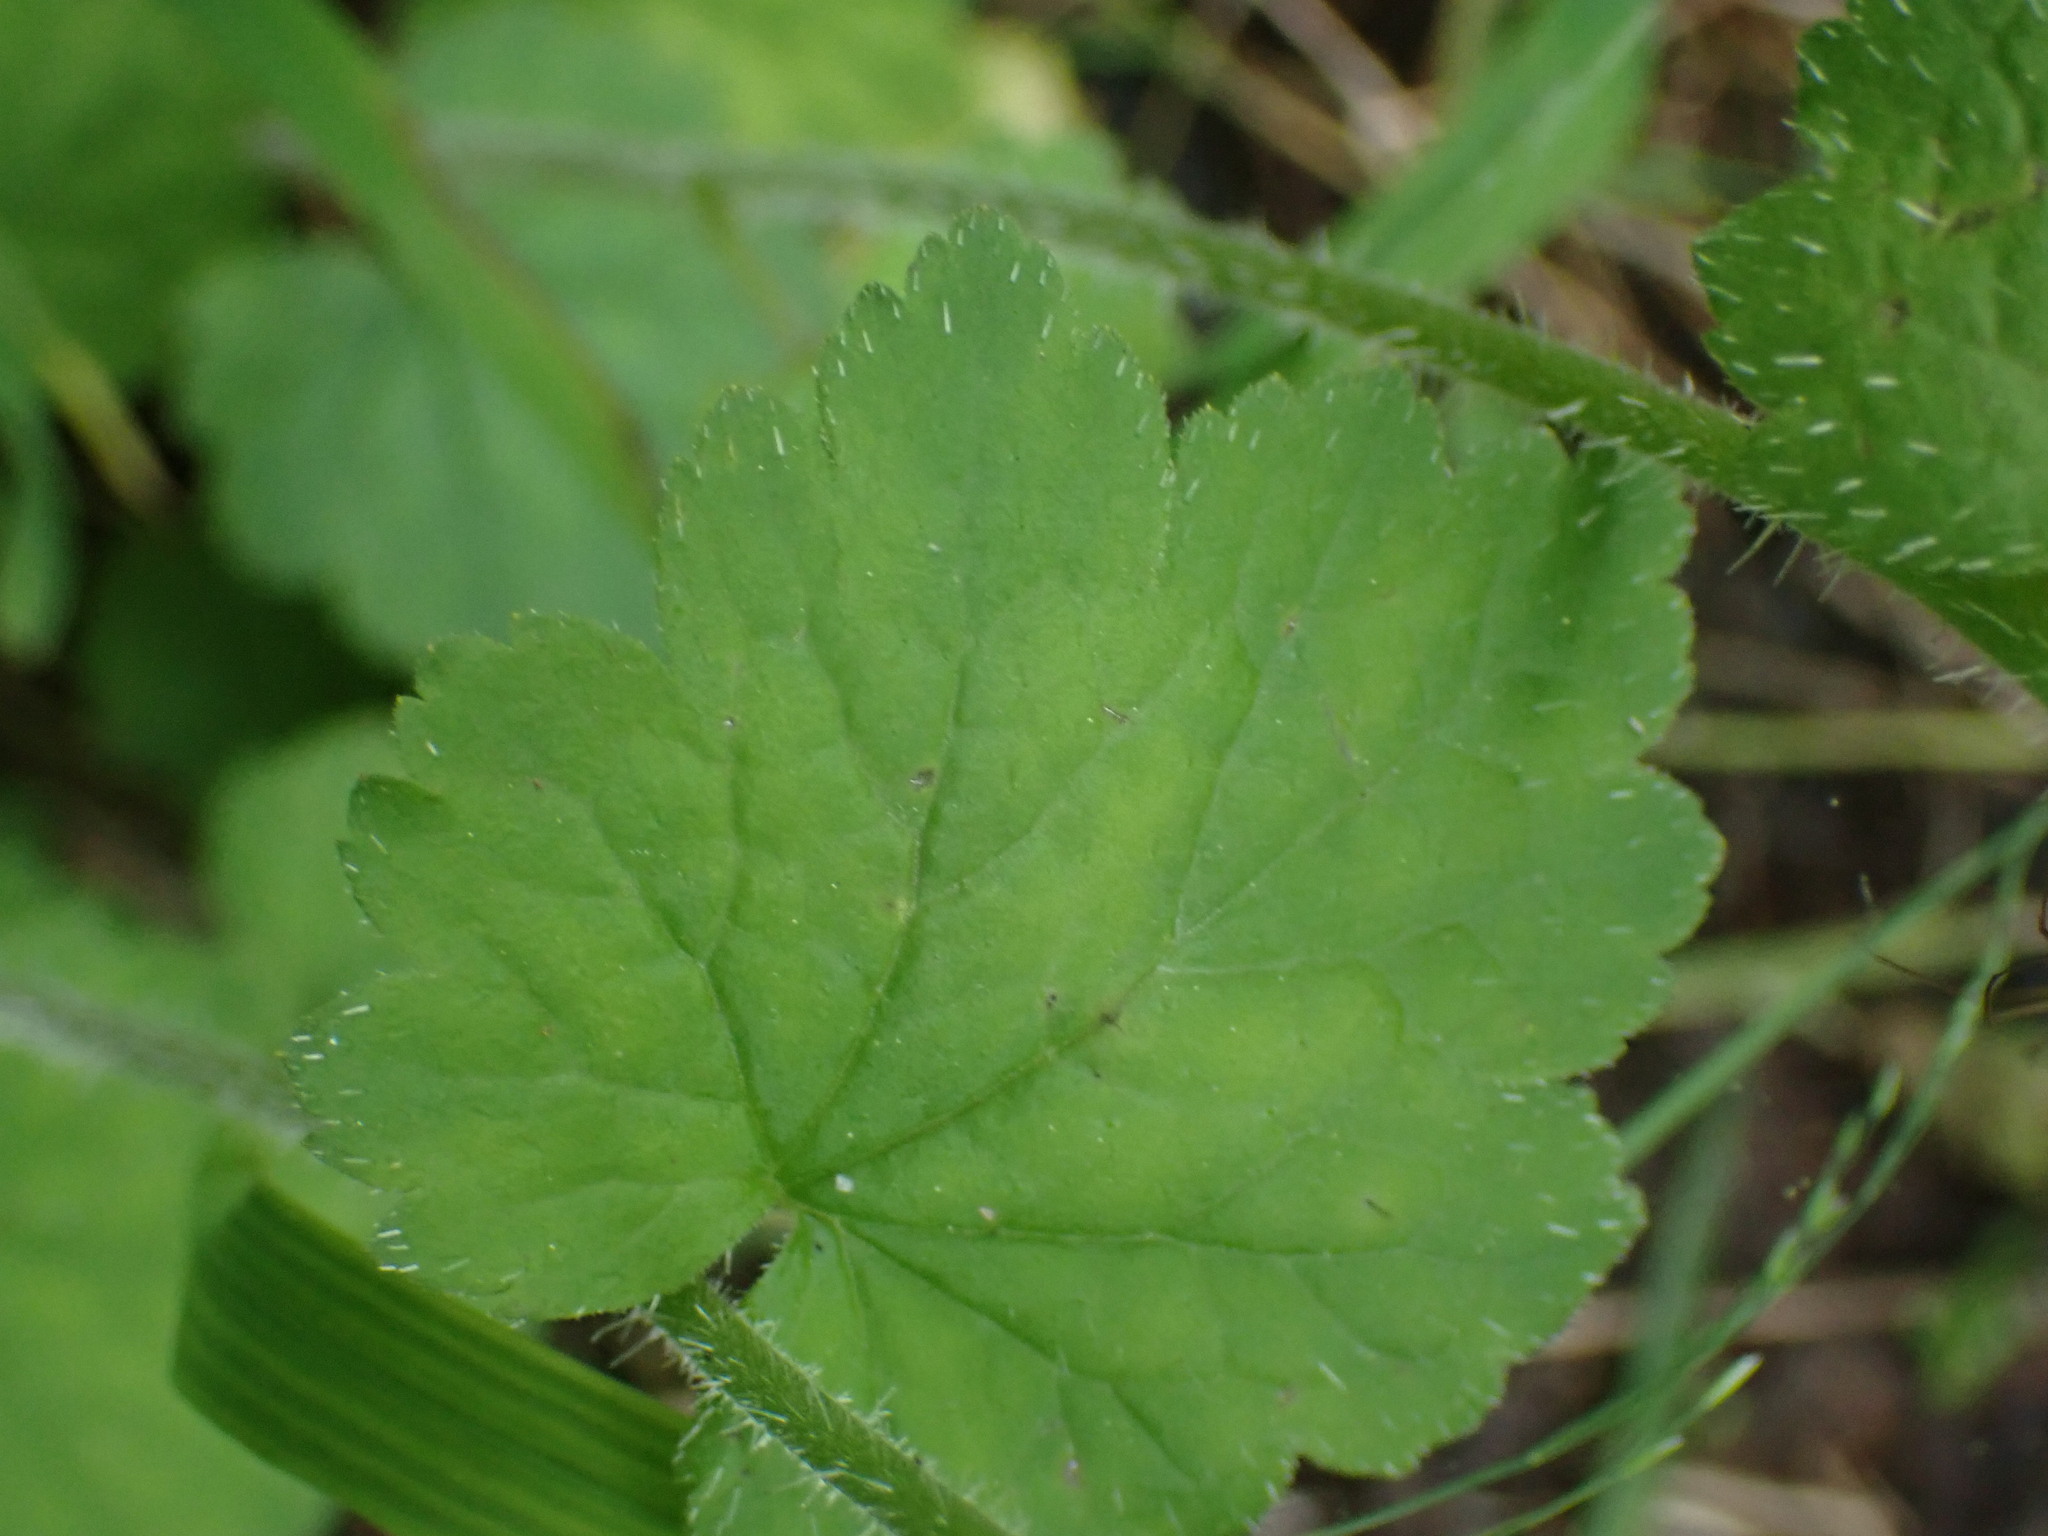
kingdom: Plantae
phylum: Tracheophyta
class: Magnoliopsida
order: Saxifragales
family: Saxifragaceae
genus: Tellima
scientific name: Tellima grandiflora
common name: Fringecups
